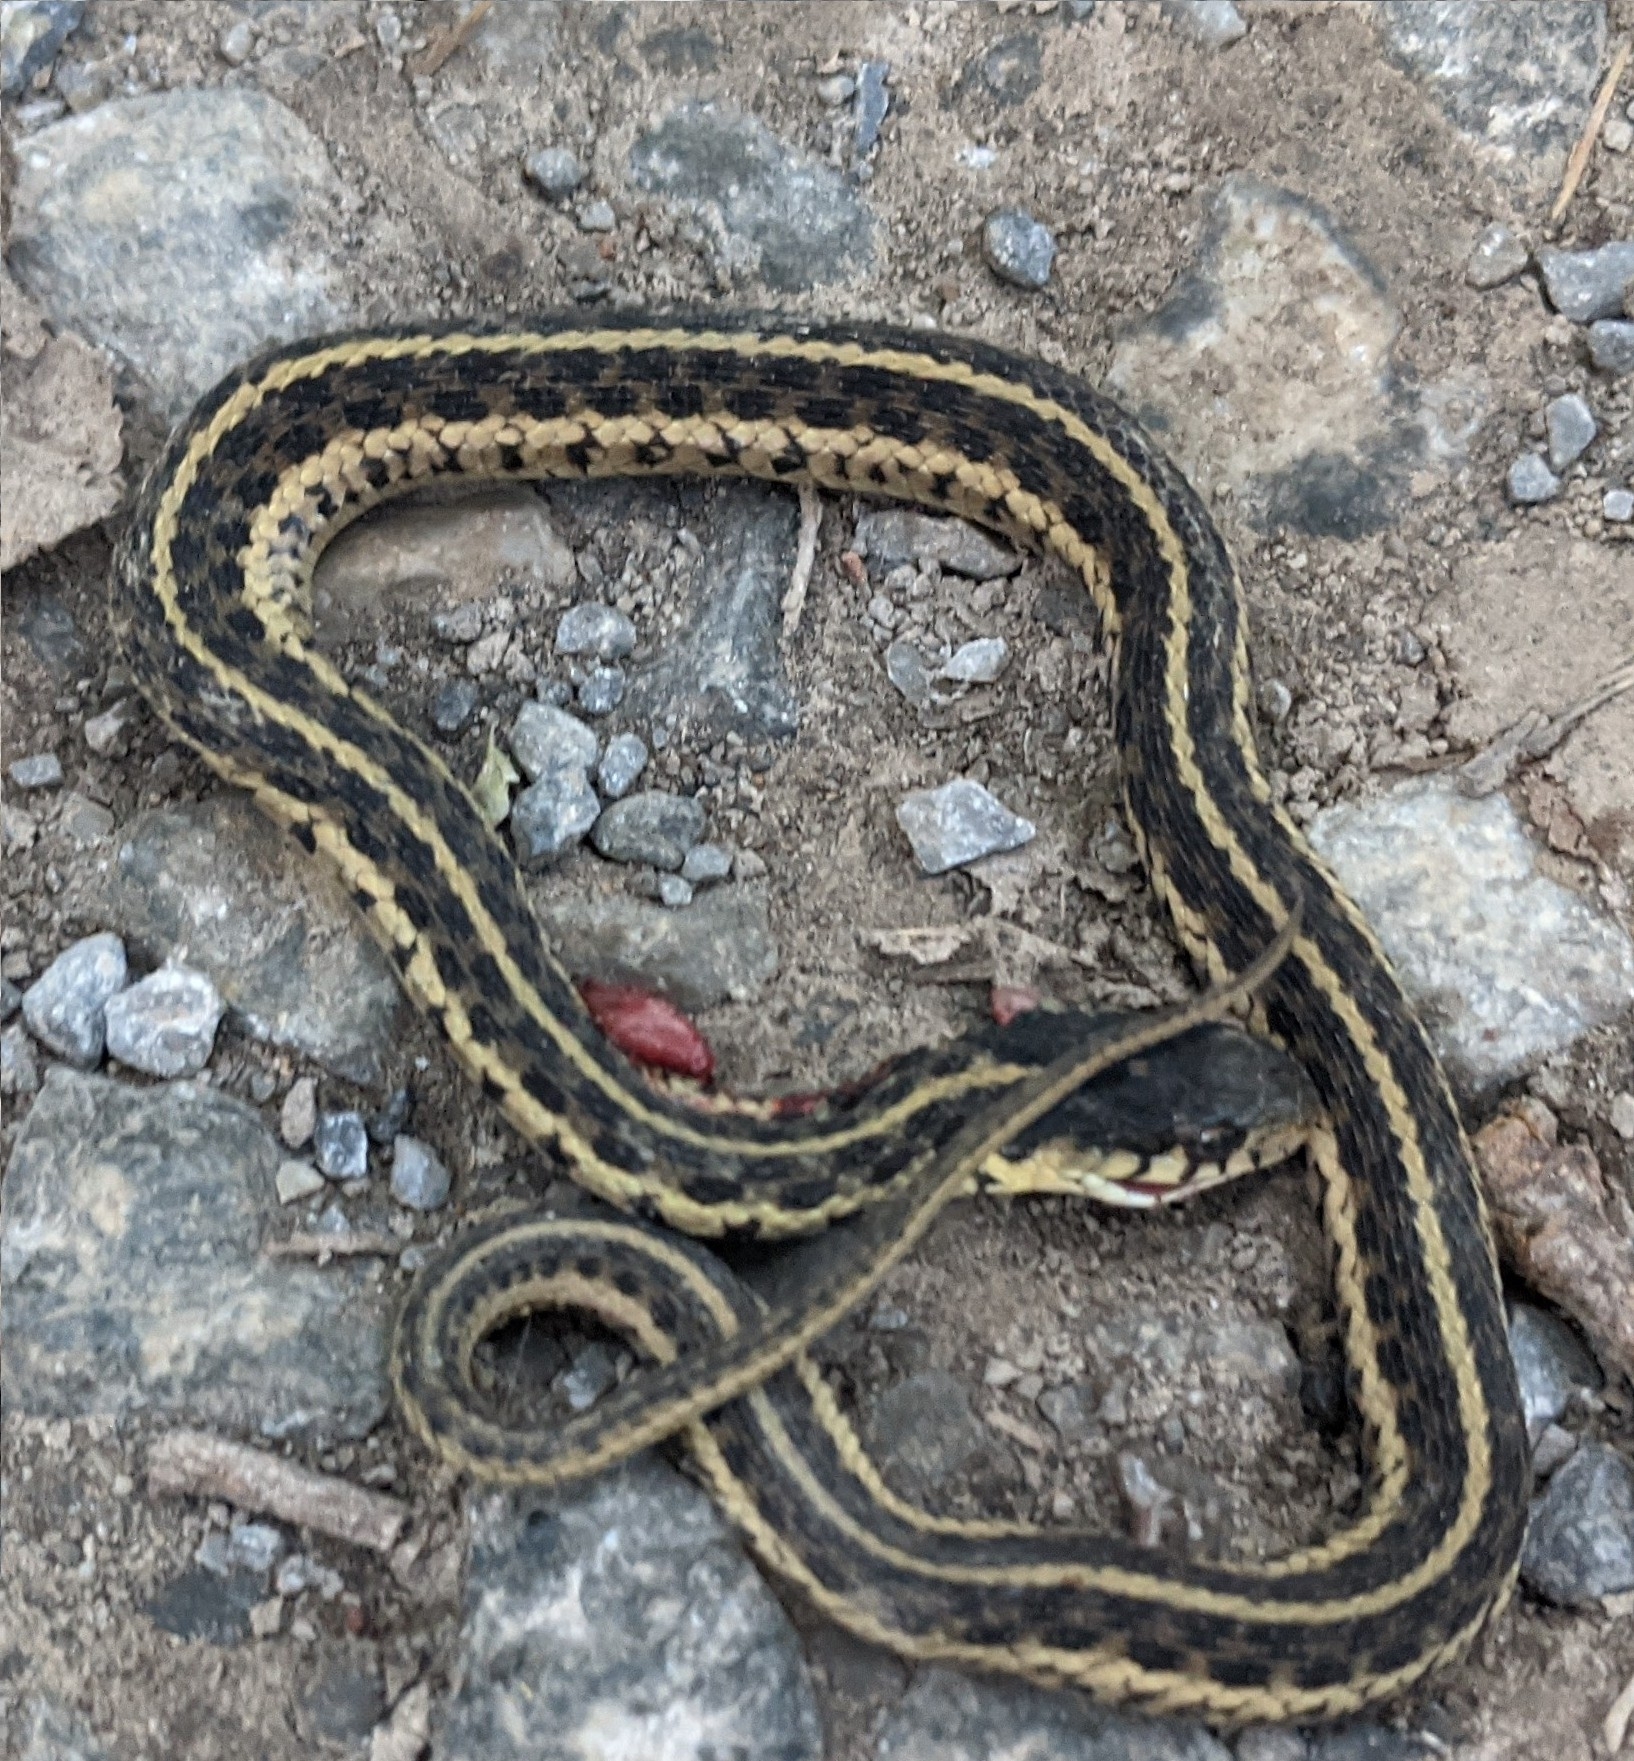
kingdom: Animalia
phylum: Chordata
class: Squamata
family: Colubridae
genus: Thamnophis
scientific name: Thamnophis sirtalis
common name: Common garter snake
